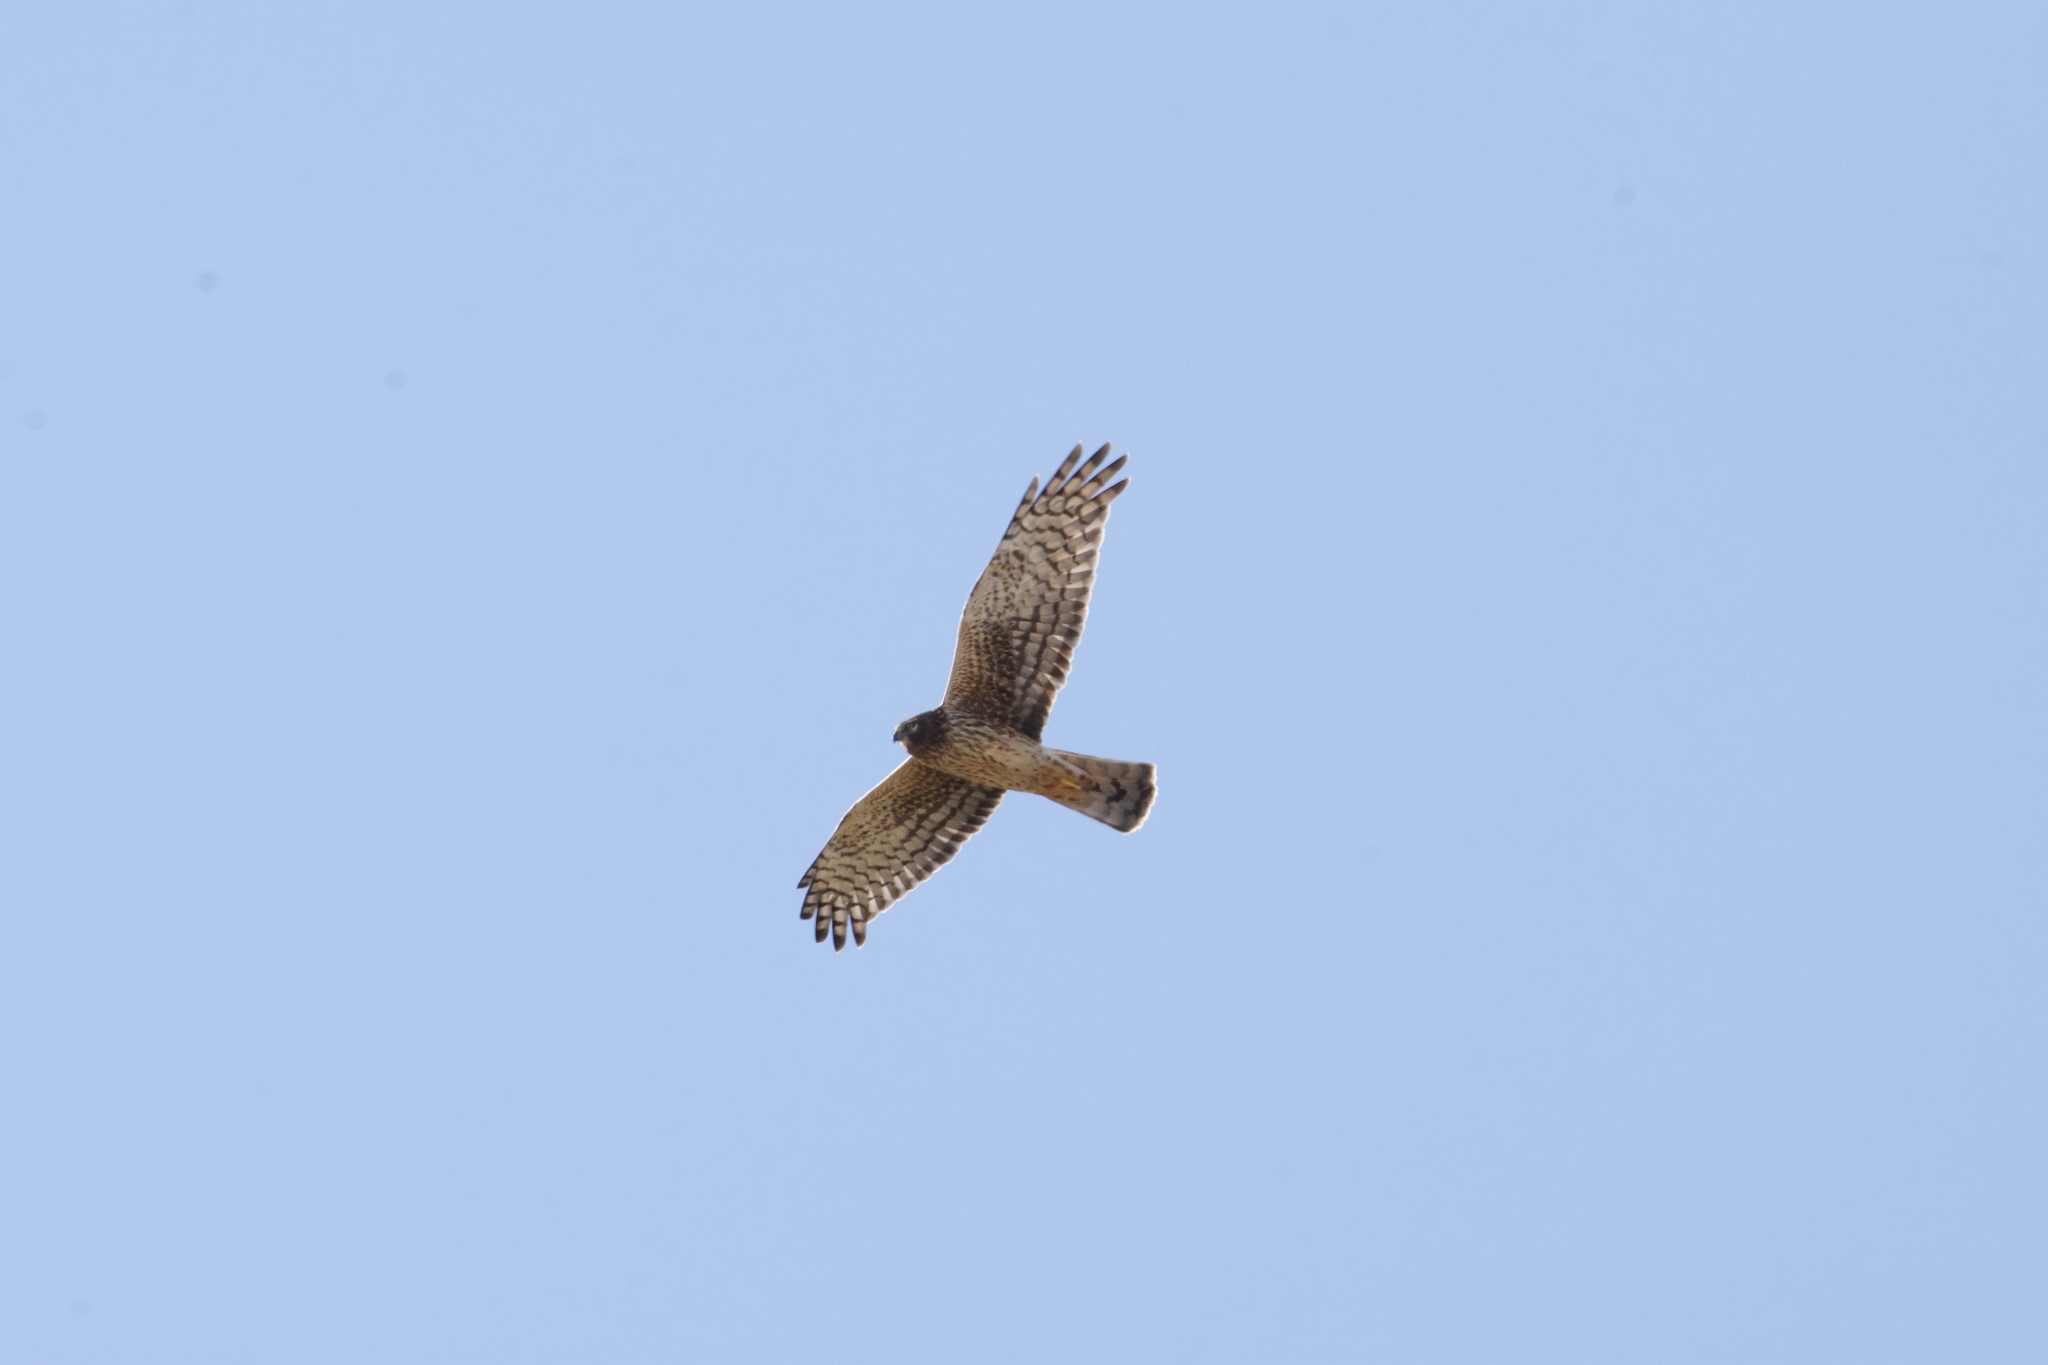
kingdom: Animalia
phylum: Chordata
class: Aves
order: Accipitriformes
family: Accipitridae
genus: Circus
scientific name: Circus cyaneus
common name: Hen harrier
